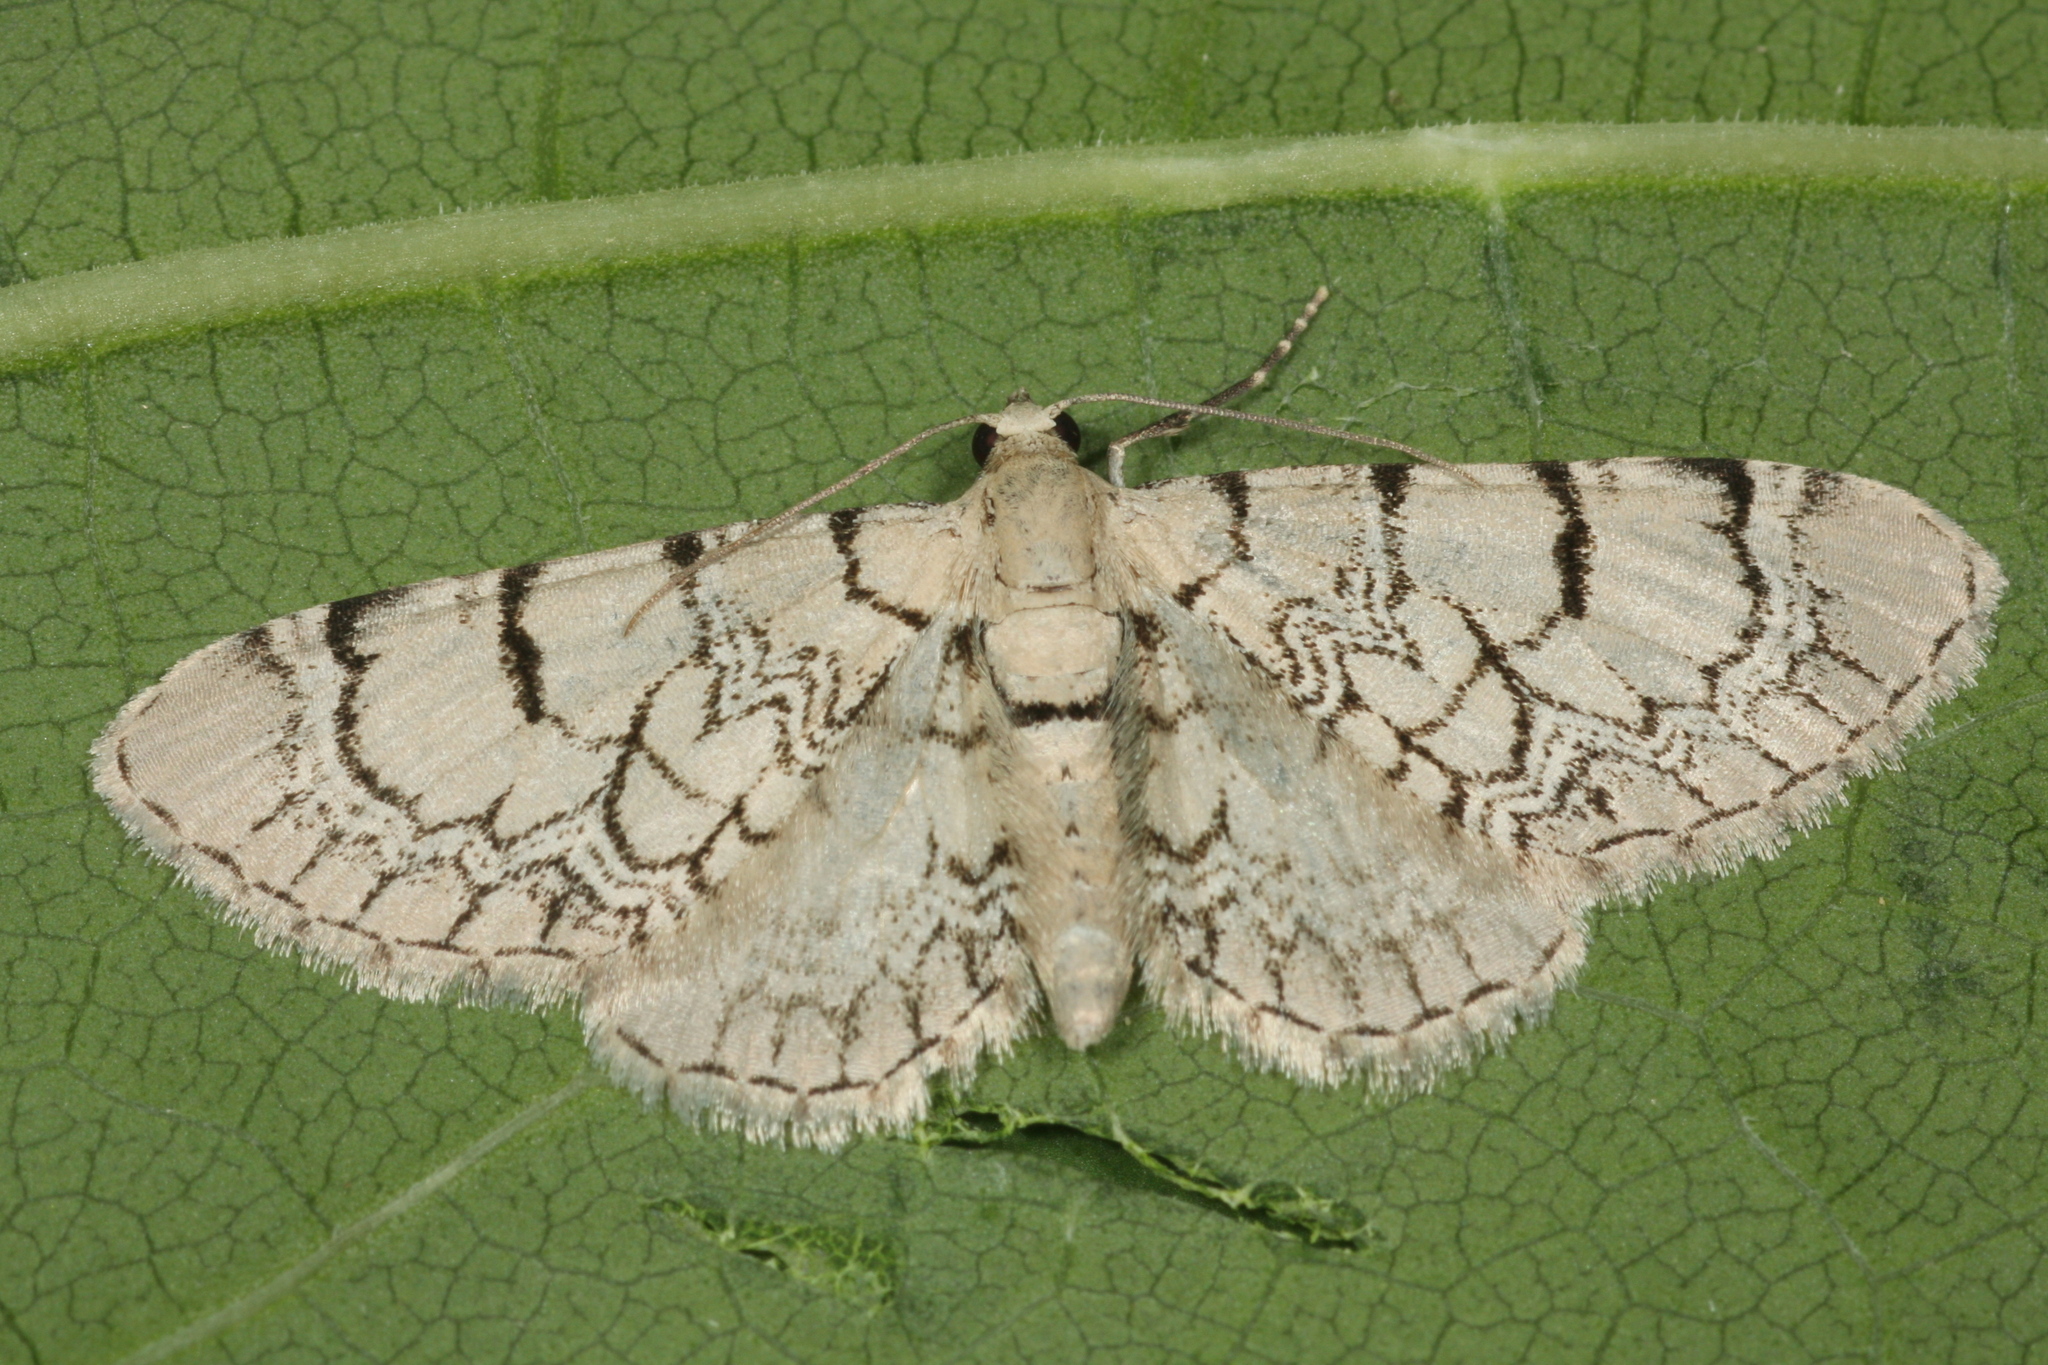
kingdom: Animalia
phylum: Arthropoda
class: Insecta
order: Lepidoptera
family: Geometridae
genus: Eupithecia
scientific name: Eupithecia venosata
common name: Netted pug
